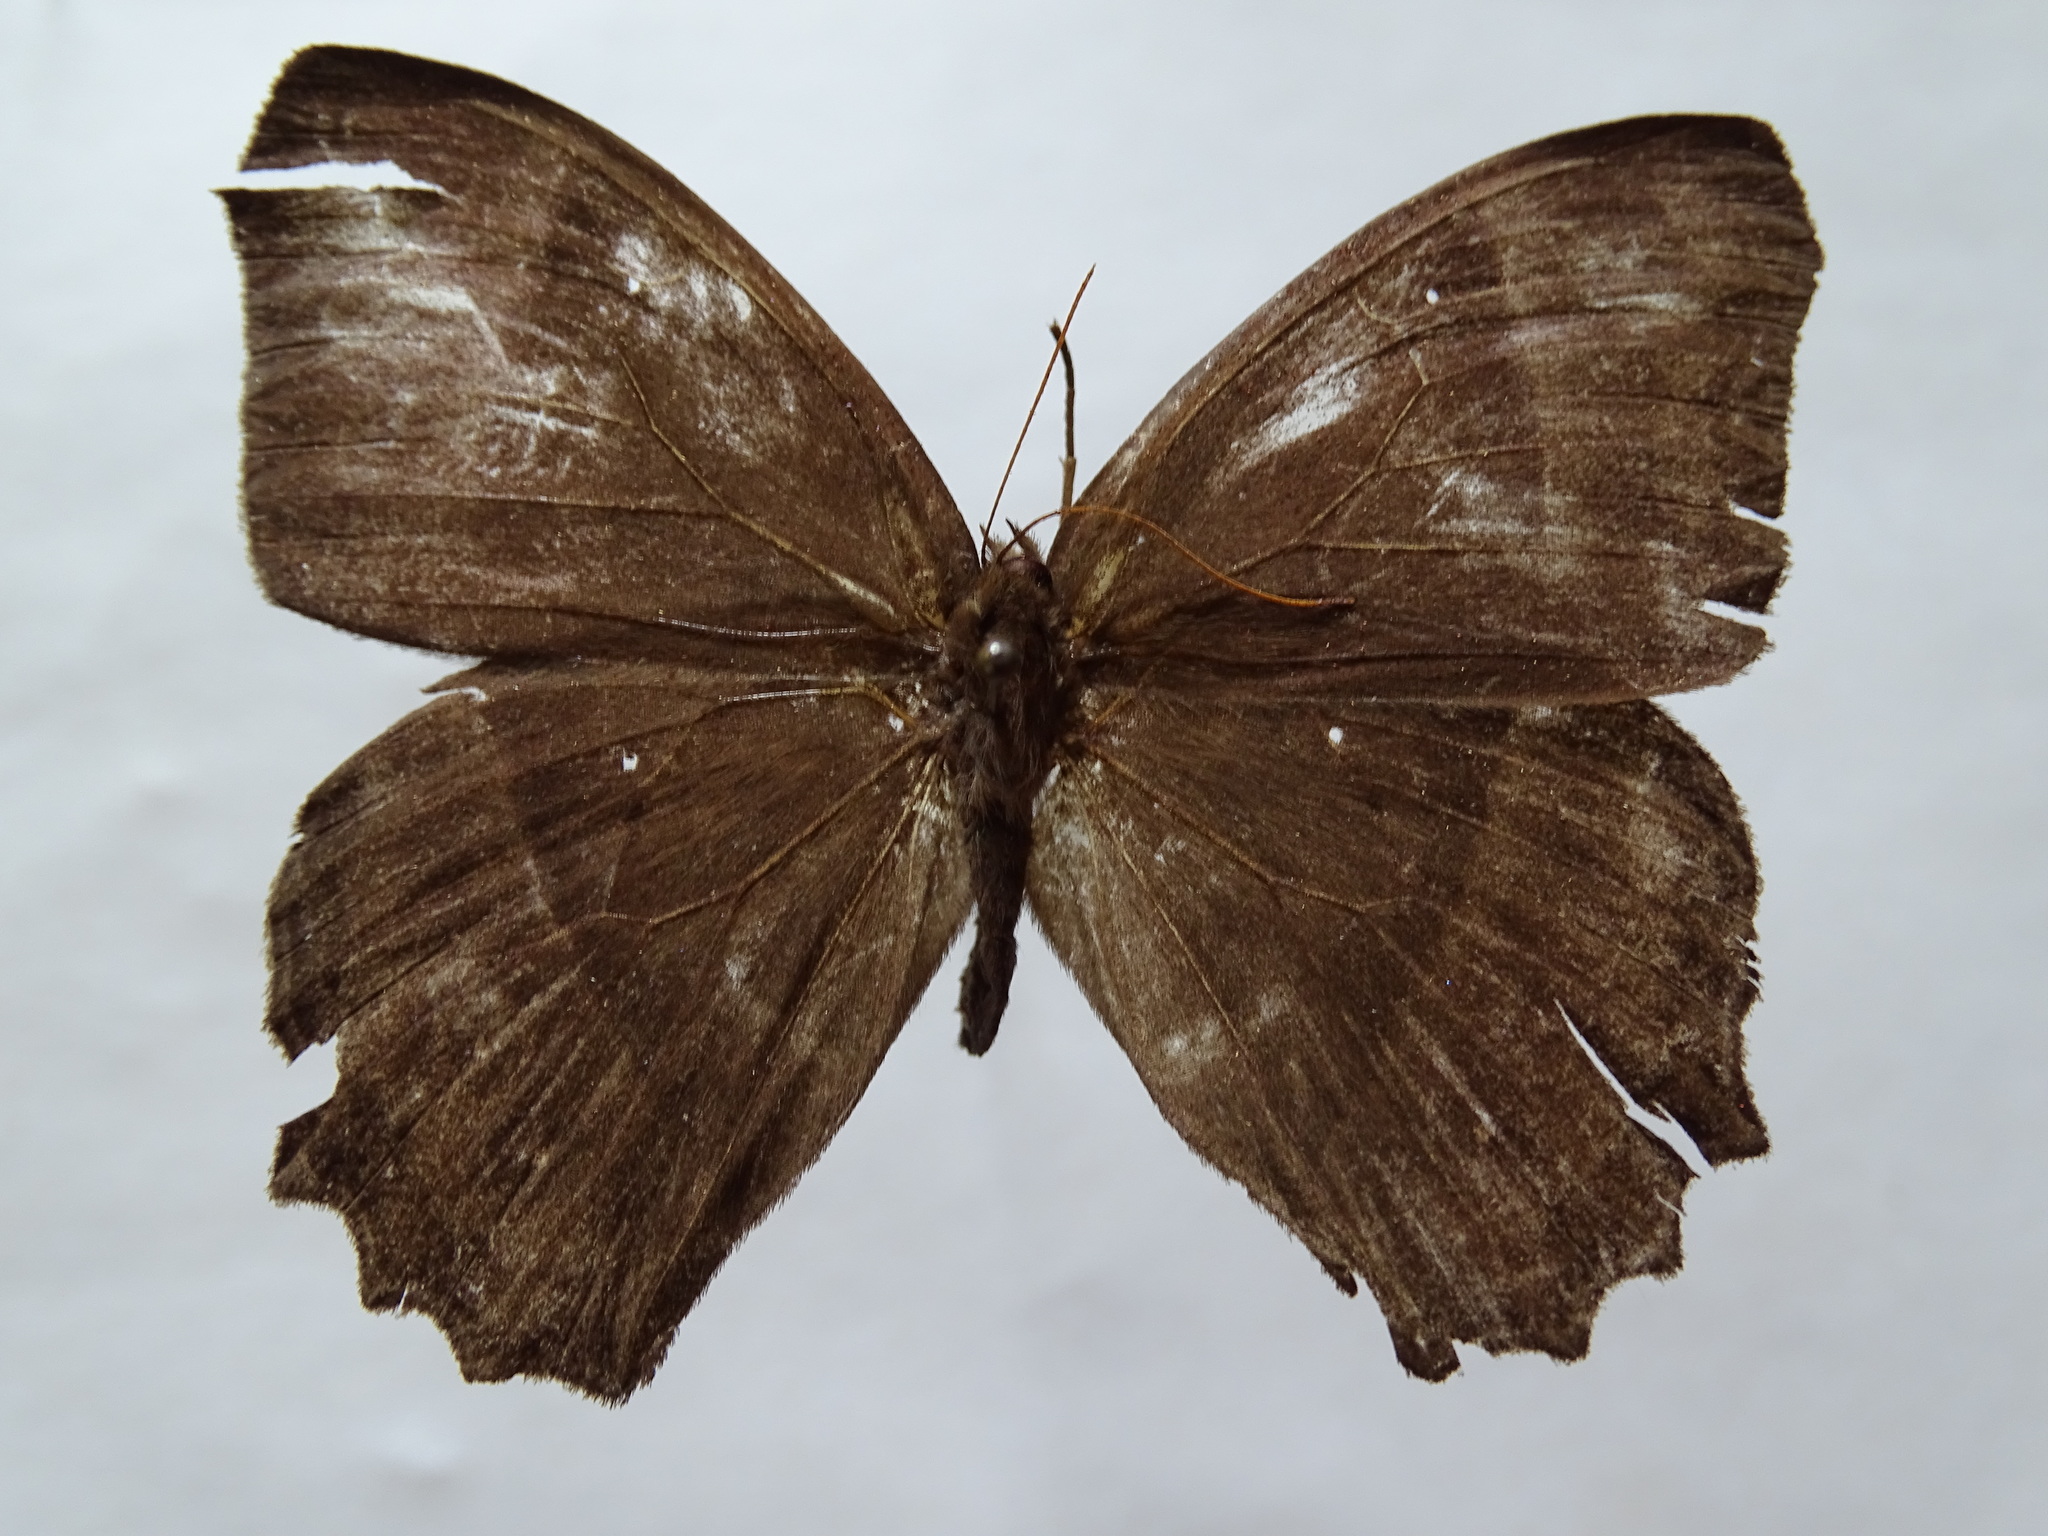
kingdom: Animalia
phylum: Arthropoda
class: Insecta
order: Lepidoptera
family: Nymphalidae
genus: Taygetis
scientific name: Taygetis inconspicua
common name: Inconspicuous satyr
